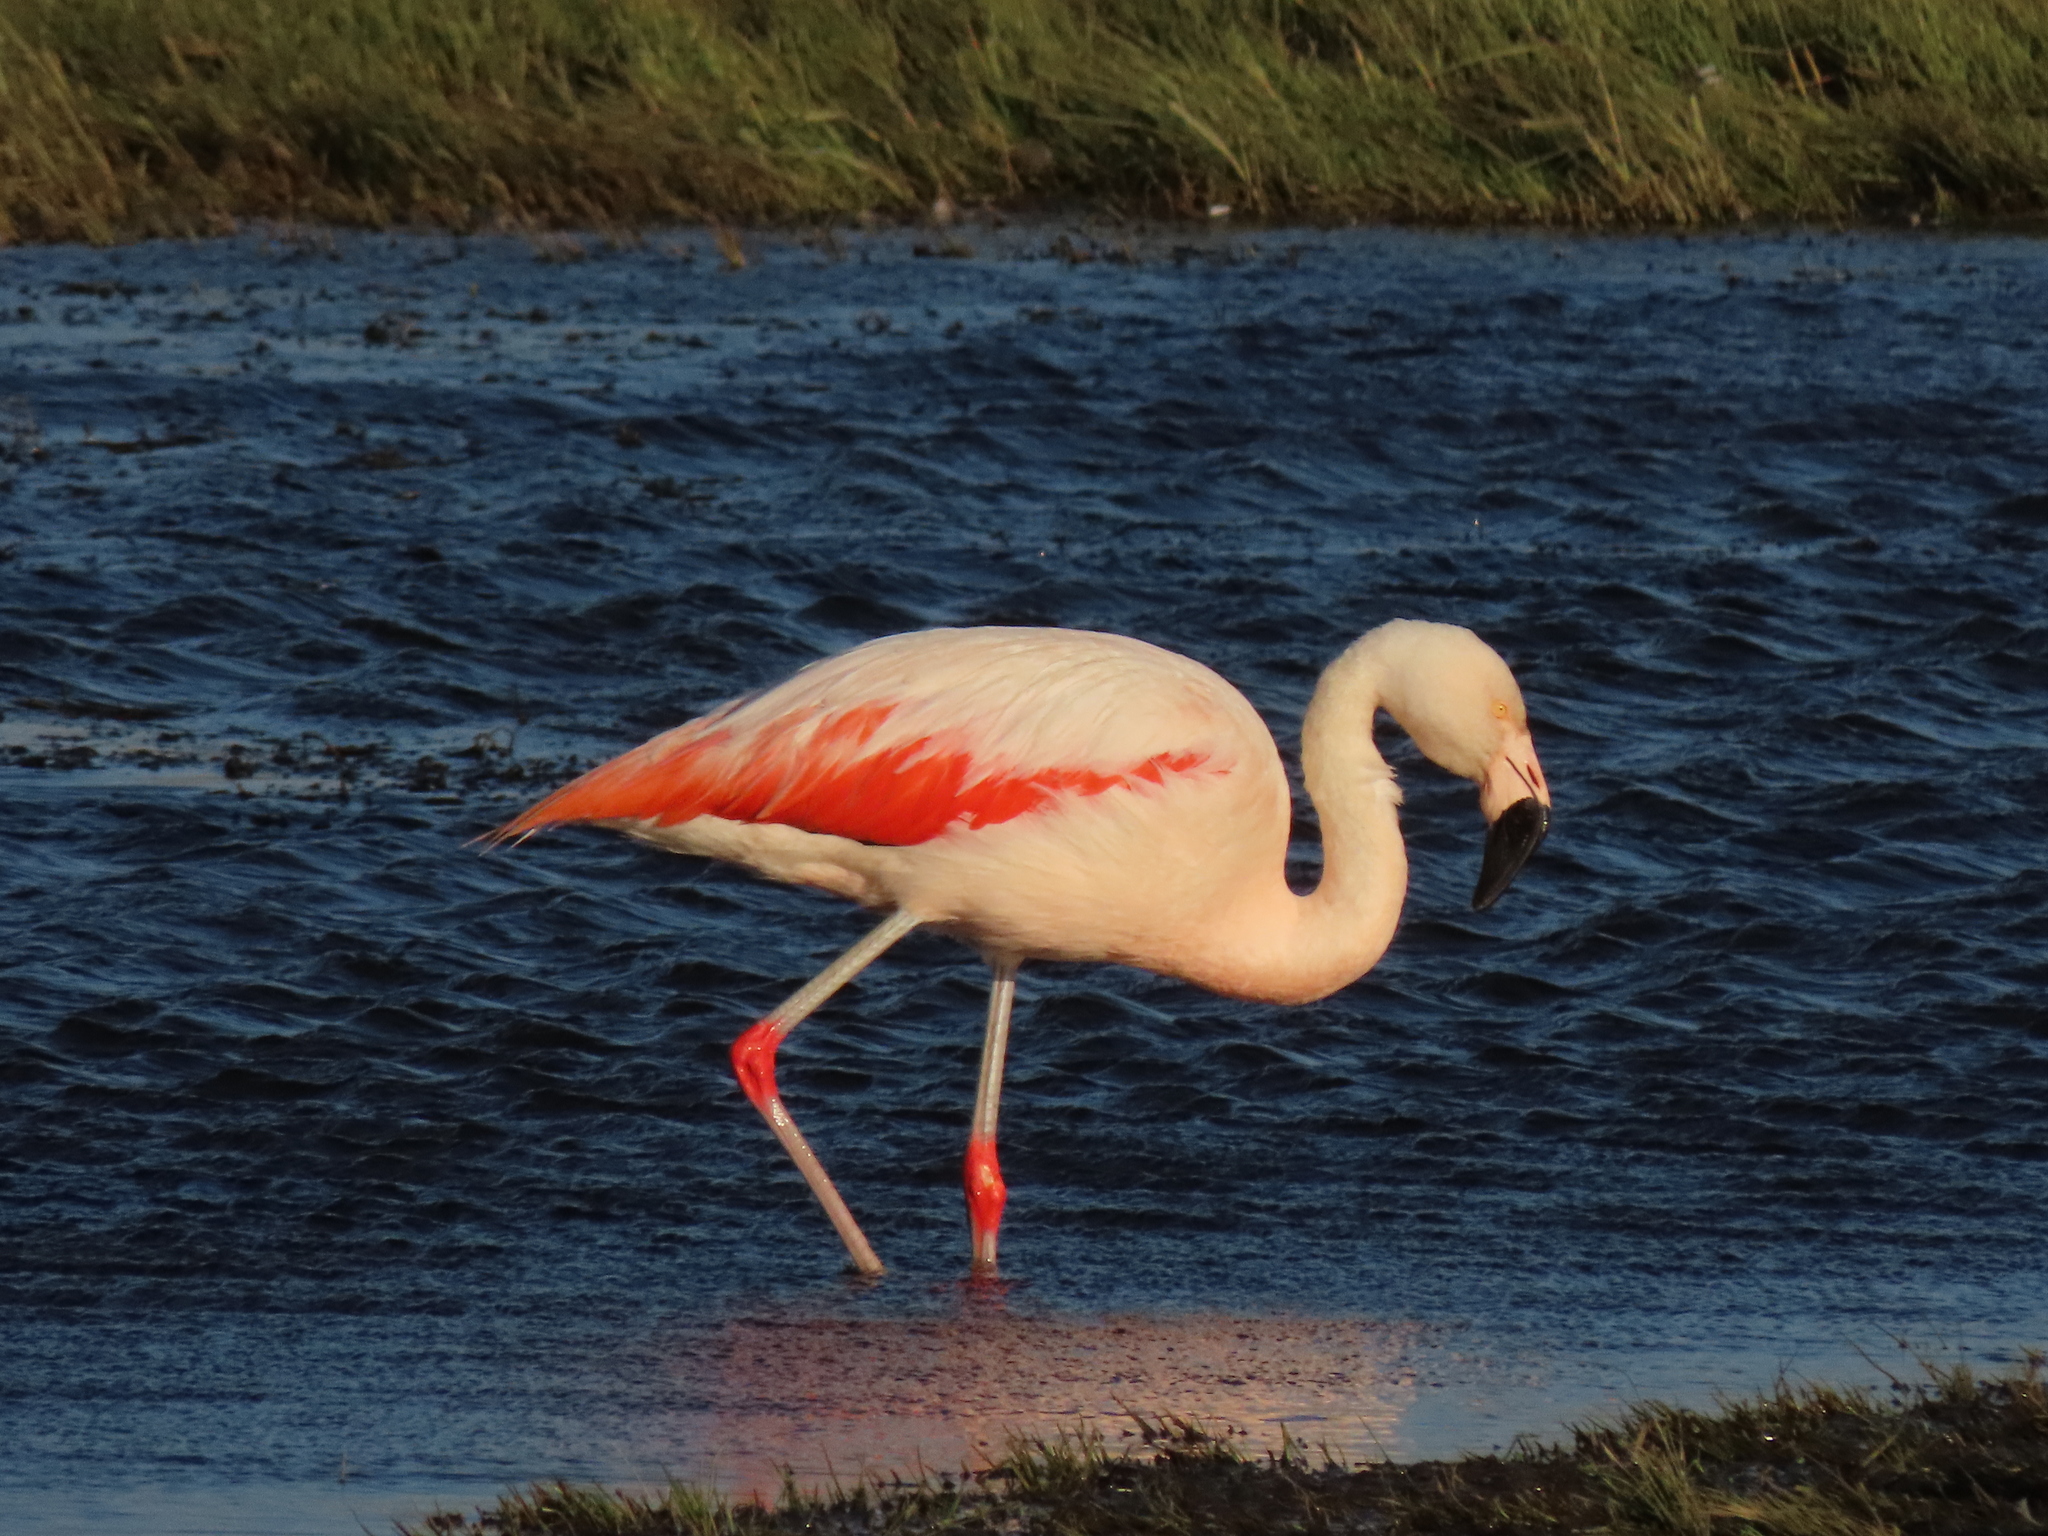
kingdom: Animalia
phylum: Chordata
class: Aves
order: Phoenicopteriformes
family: Phoenicopteridae
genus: Phoenicopterus
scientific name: Phoenicopterus chilensis
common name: Chilean flamingo
